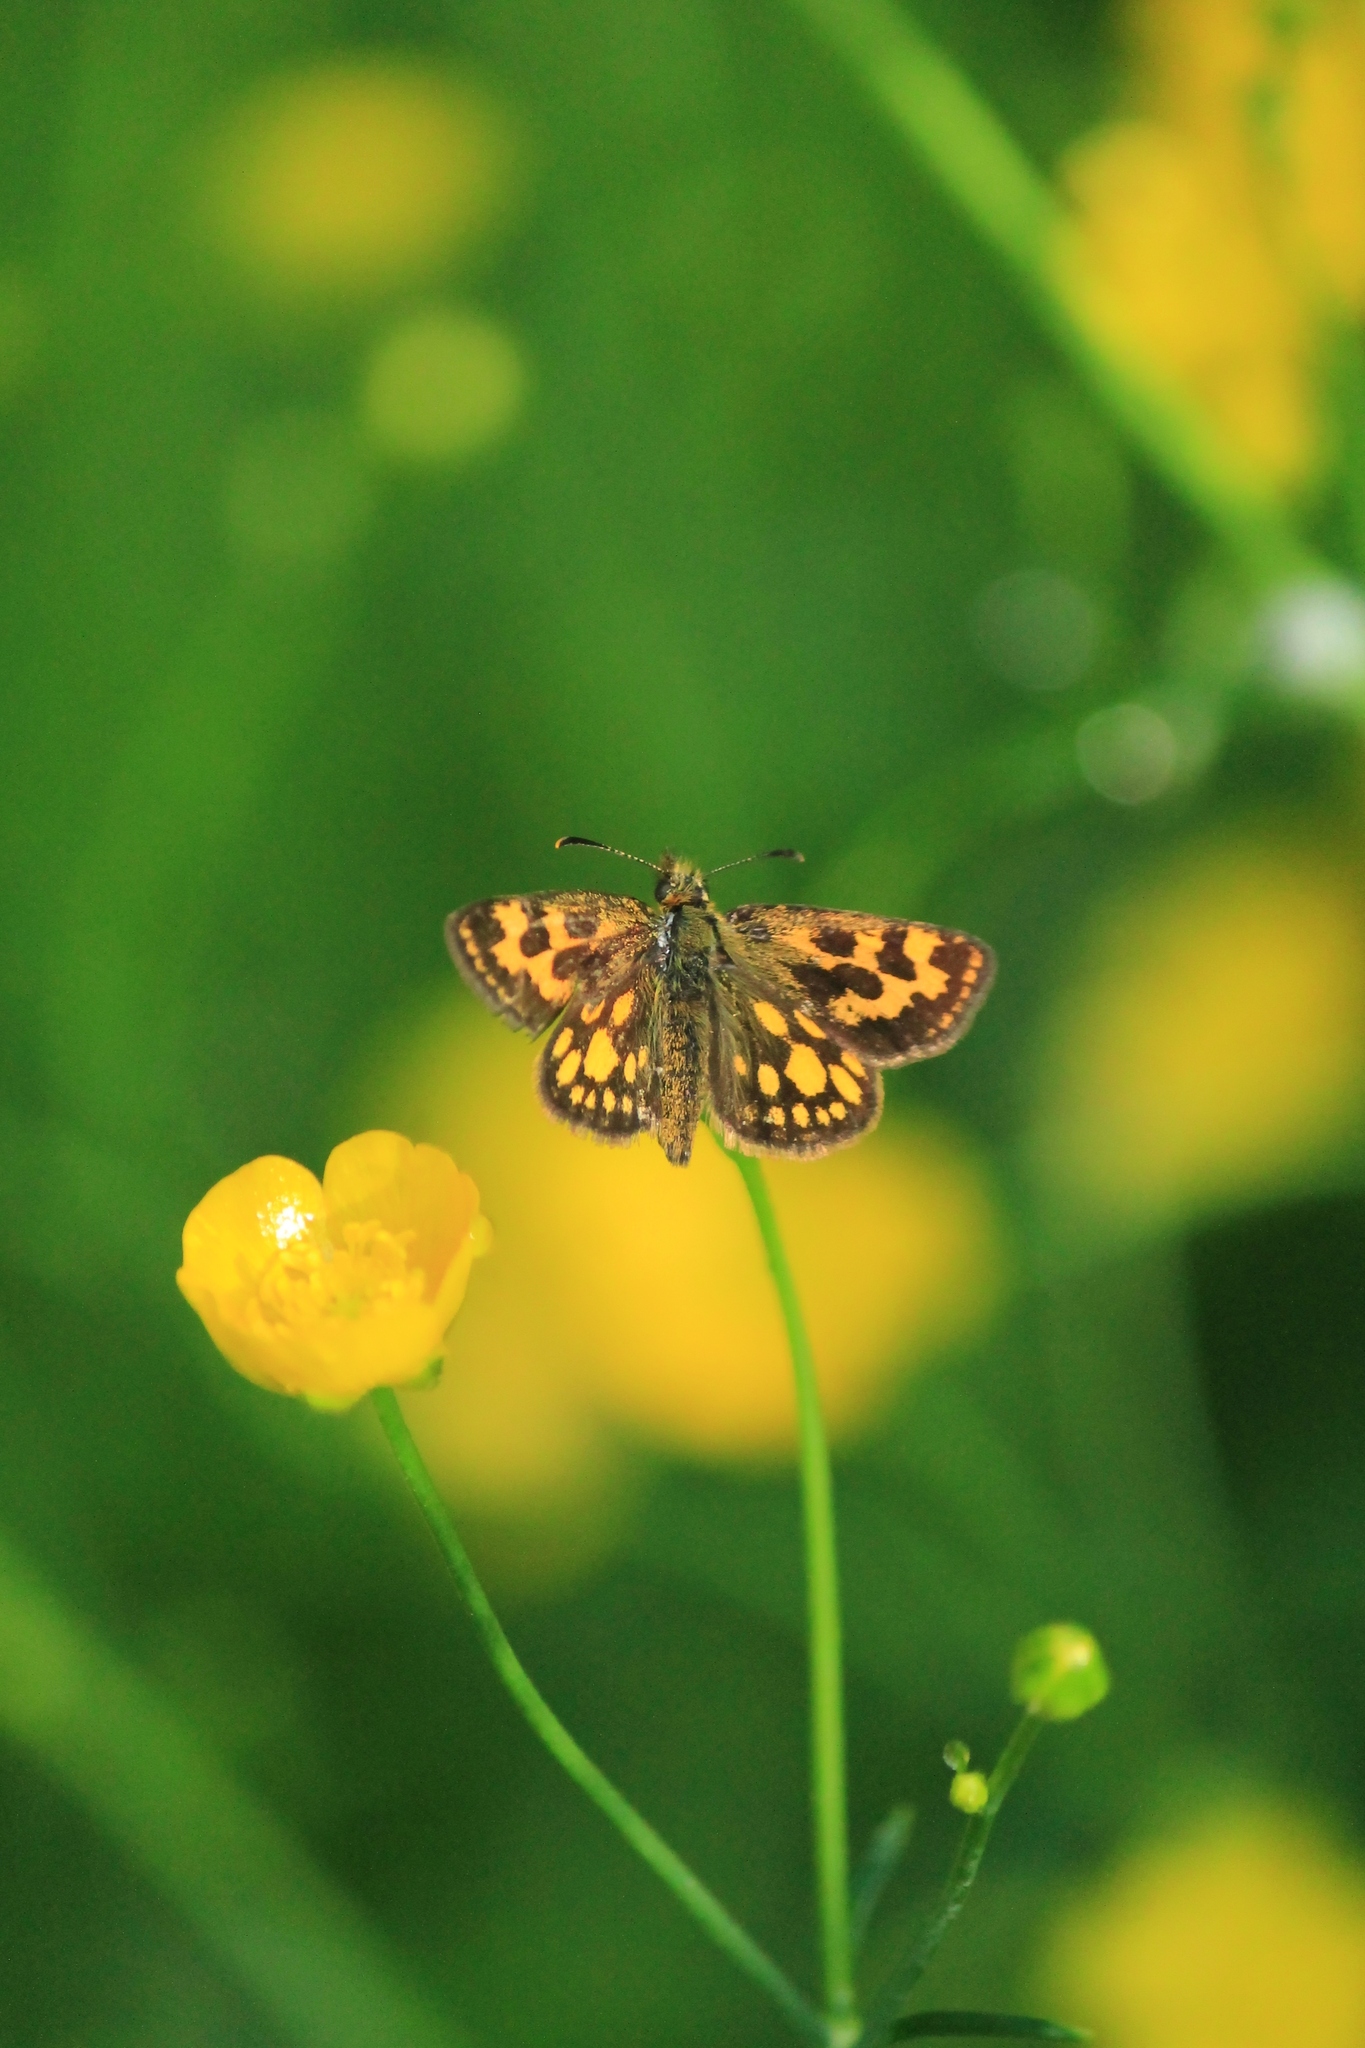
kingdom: Animalia
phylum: Arthropoda
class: Insecta
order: Lepidoptera
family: Hesperiidae
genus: Carterocephalus
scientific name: Carterocephalus silvicola
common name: Northern chequered skipper
